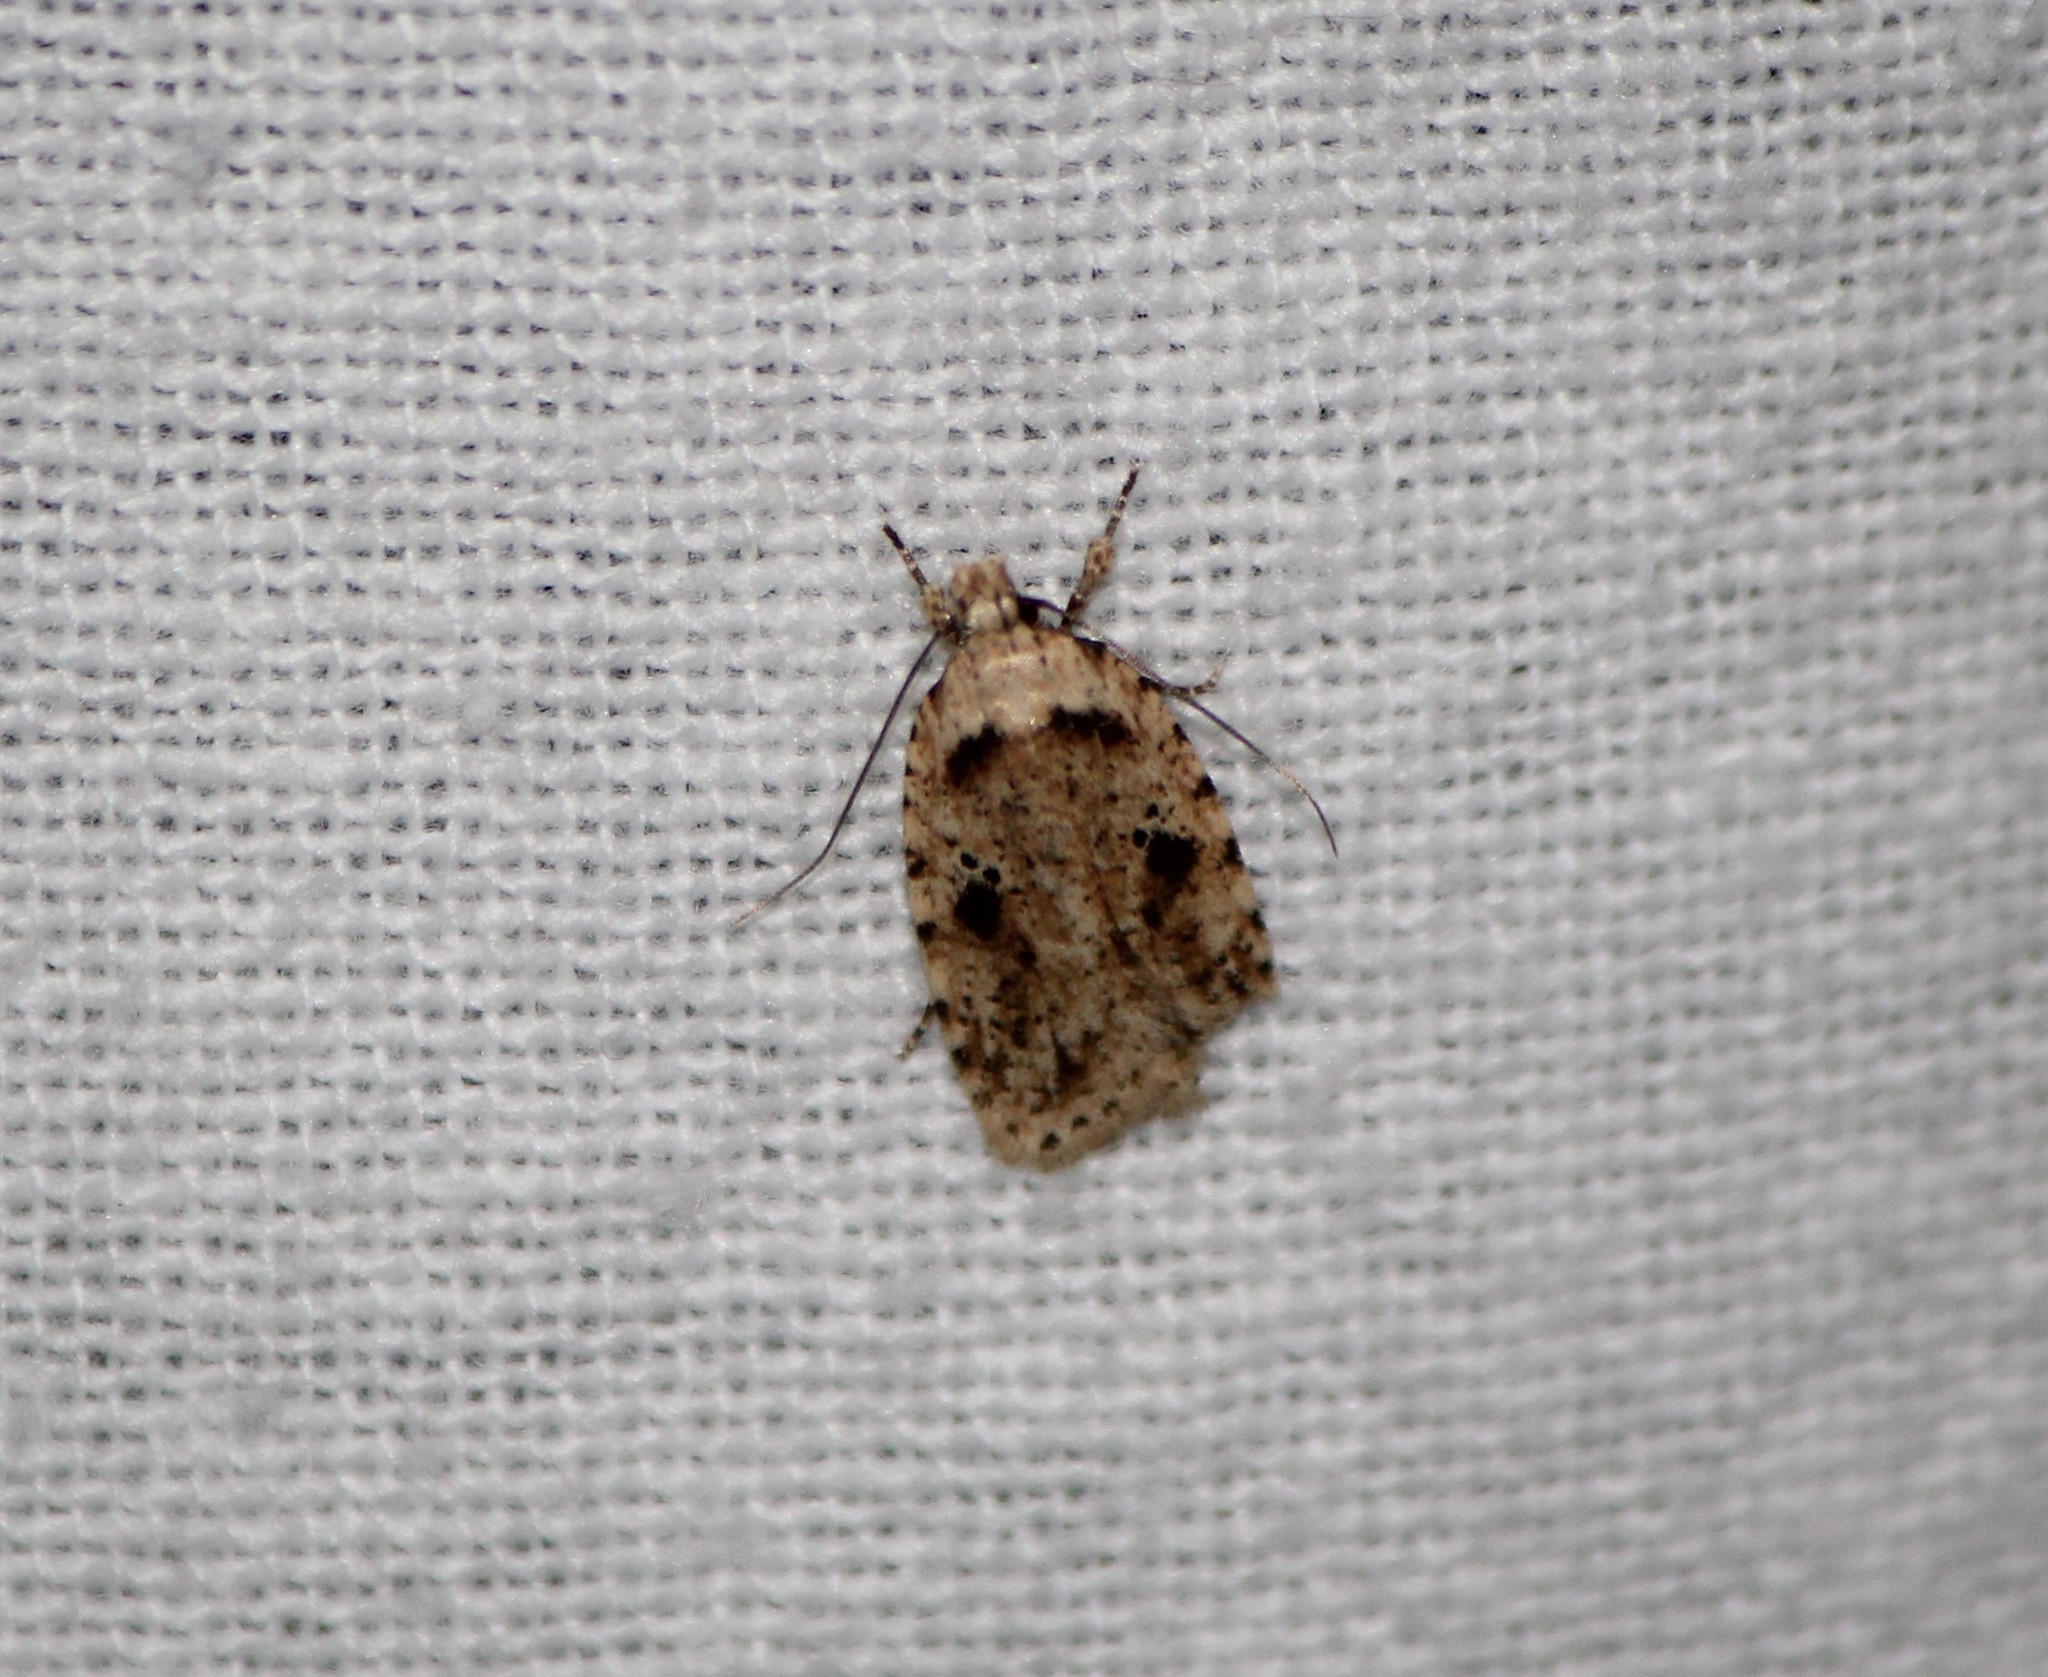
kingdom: Animalia
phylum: Arthropoda
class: Insecta
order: Lepidoptera
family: Depressariidae
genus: Agonopterix
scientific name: Agonopterix canadensis
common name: Canadian agonopterix moth
